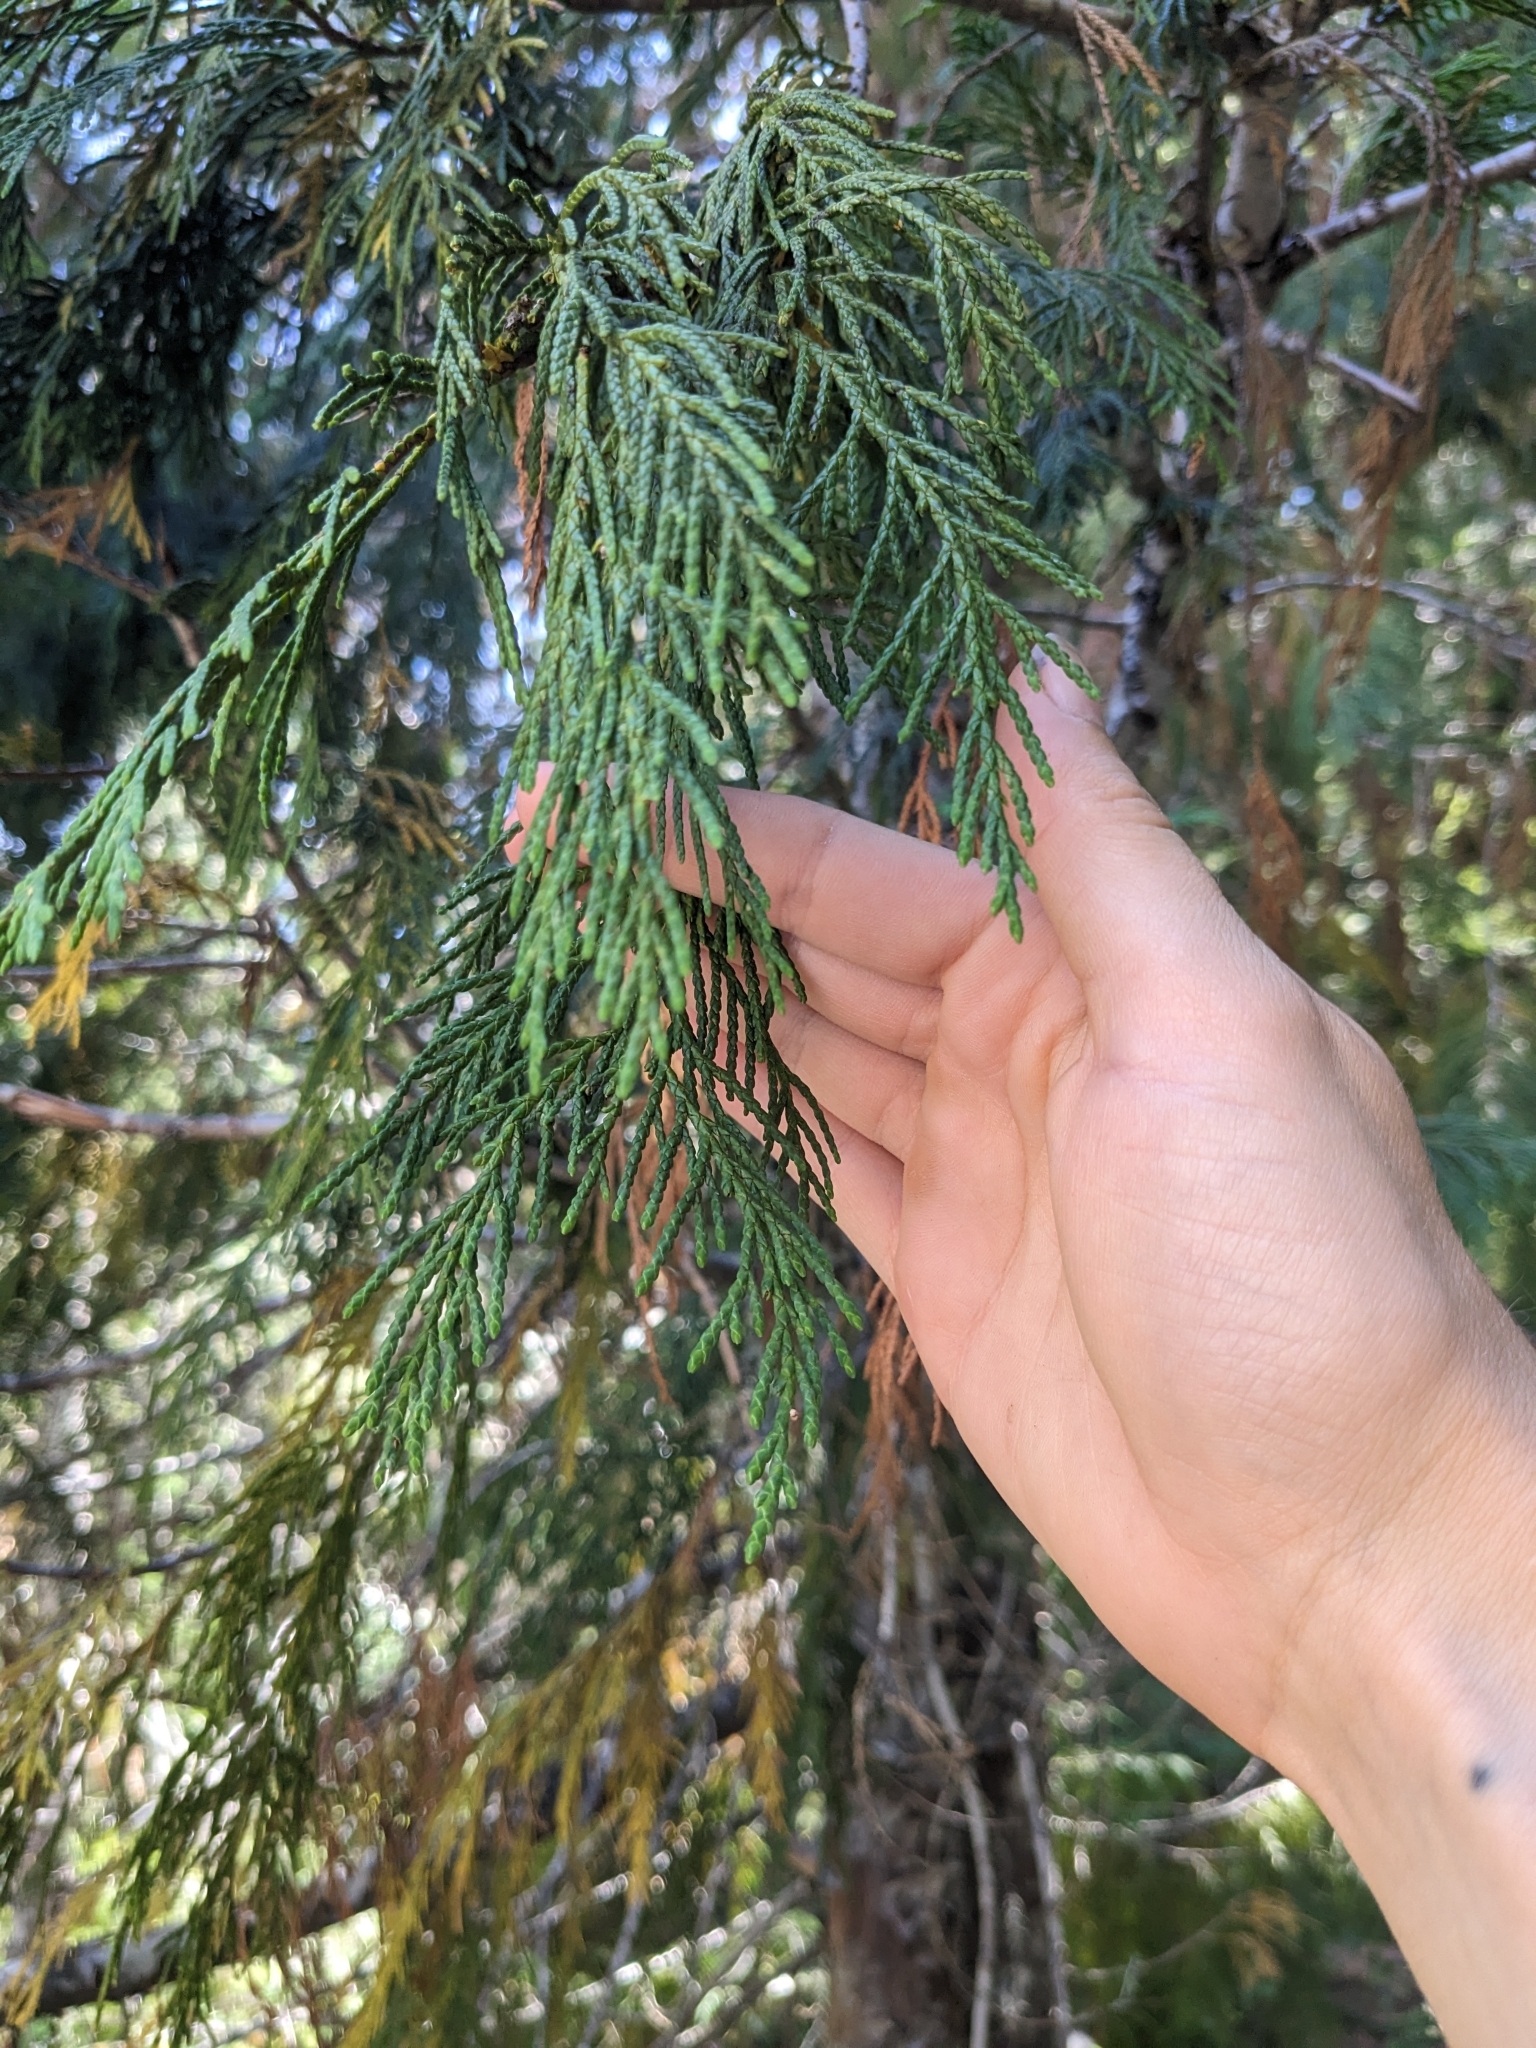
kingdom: Plantae
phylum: Tracheophyta
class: Pinopsida
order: Pinales
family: Cupressaceae
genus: Xanthocyparis
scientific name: Xanthocyparis nootkatensis
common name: Nootka cypress
